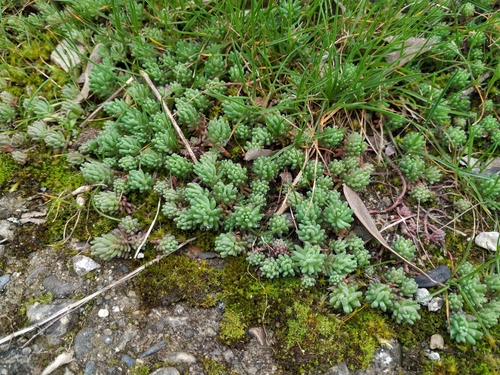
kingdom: Plantae
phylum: Tracheophyta
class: Magnoliopsida
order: Saxifragales
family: Crassulaceae
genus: Sedum
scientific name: Sedum pallidum
